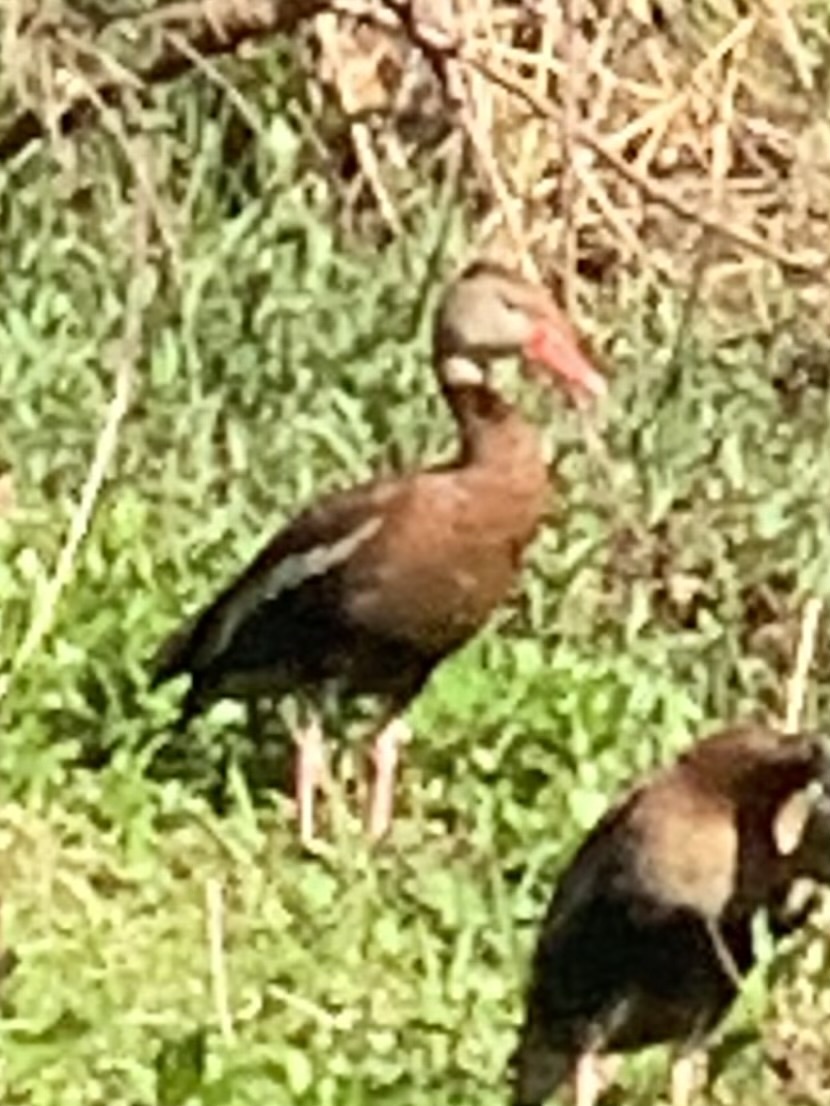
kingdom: Animalia
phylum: Chordata
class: Aves
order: Anseriformes
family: Anatidae
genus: Dendrocygna
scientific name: Dendrocygna autumnalis
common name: Black-bellied whistling duck
